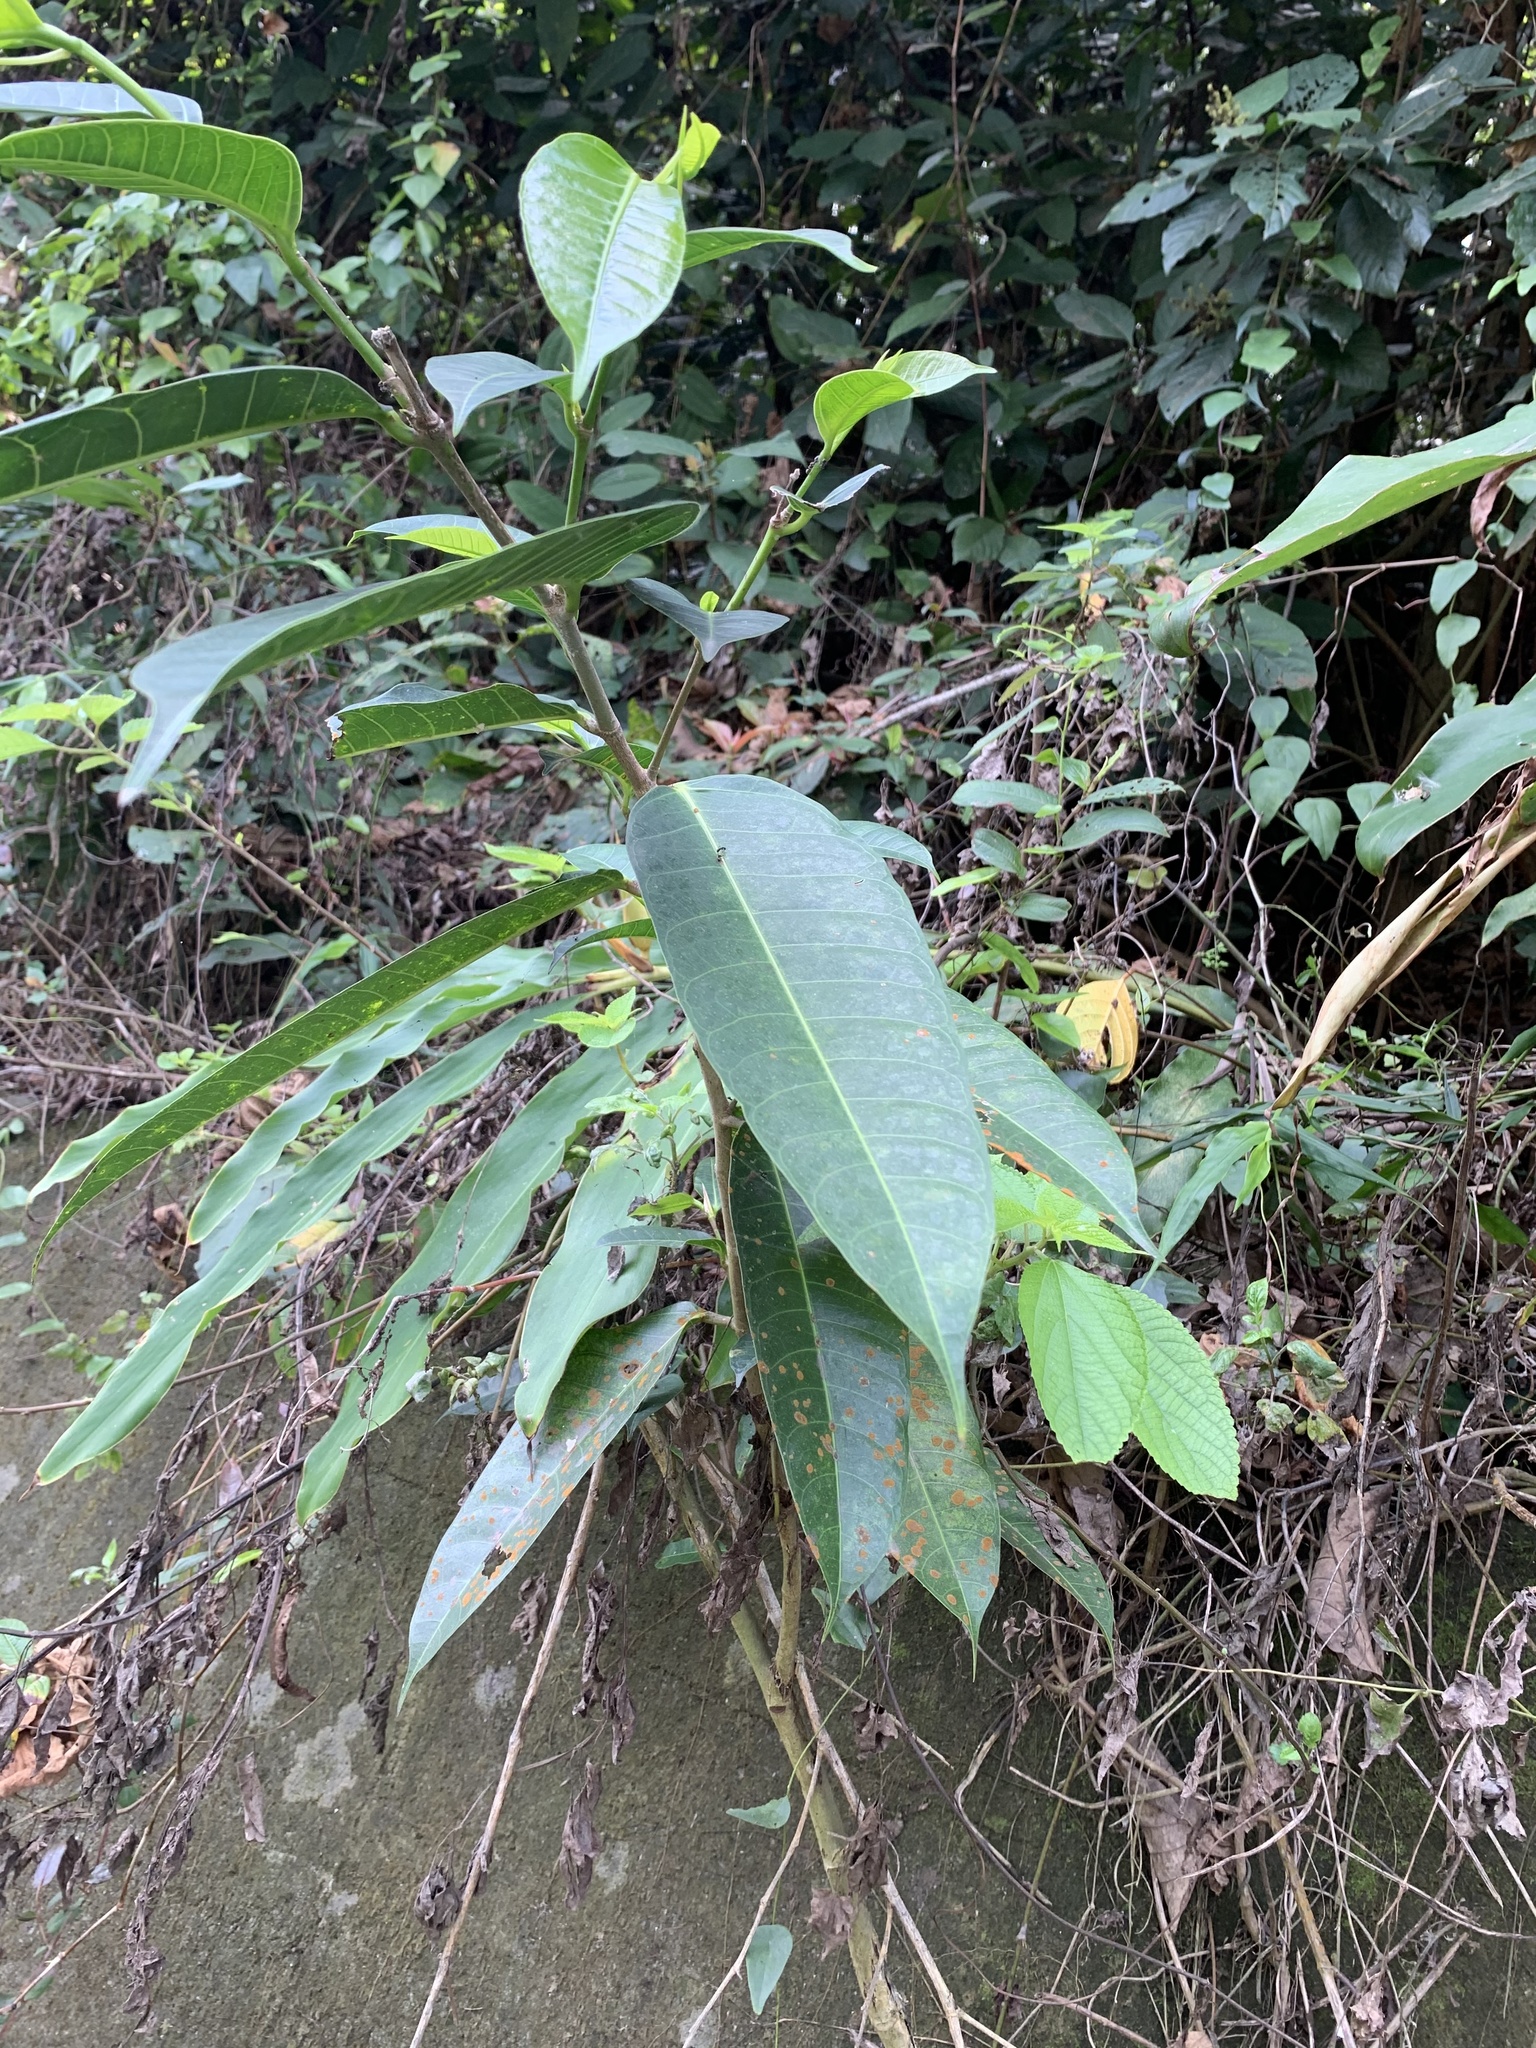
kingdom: Plantae
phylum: Tracheophyta
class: Magnoliopsida
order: Rosales
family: Moraceae
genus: Ficus
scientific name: Ficus virgata
